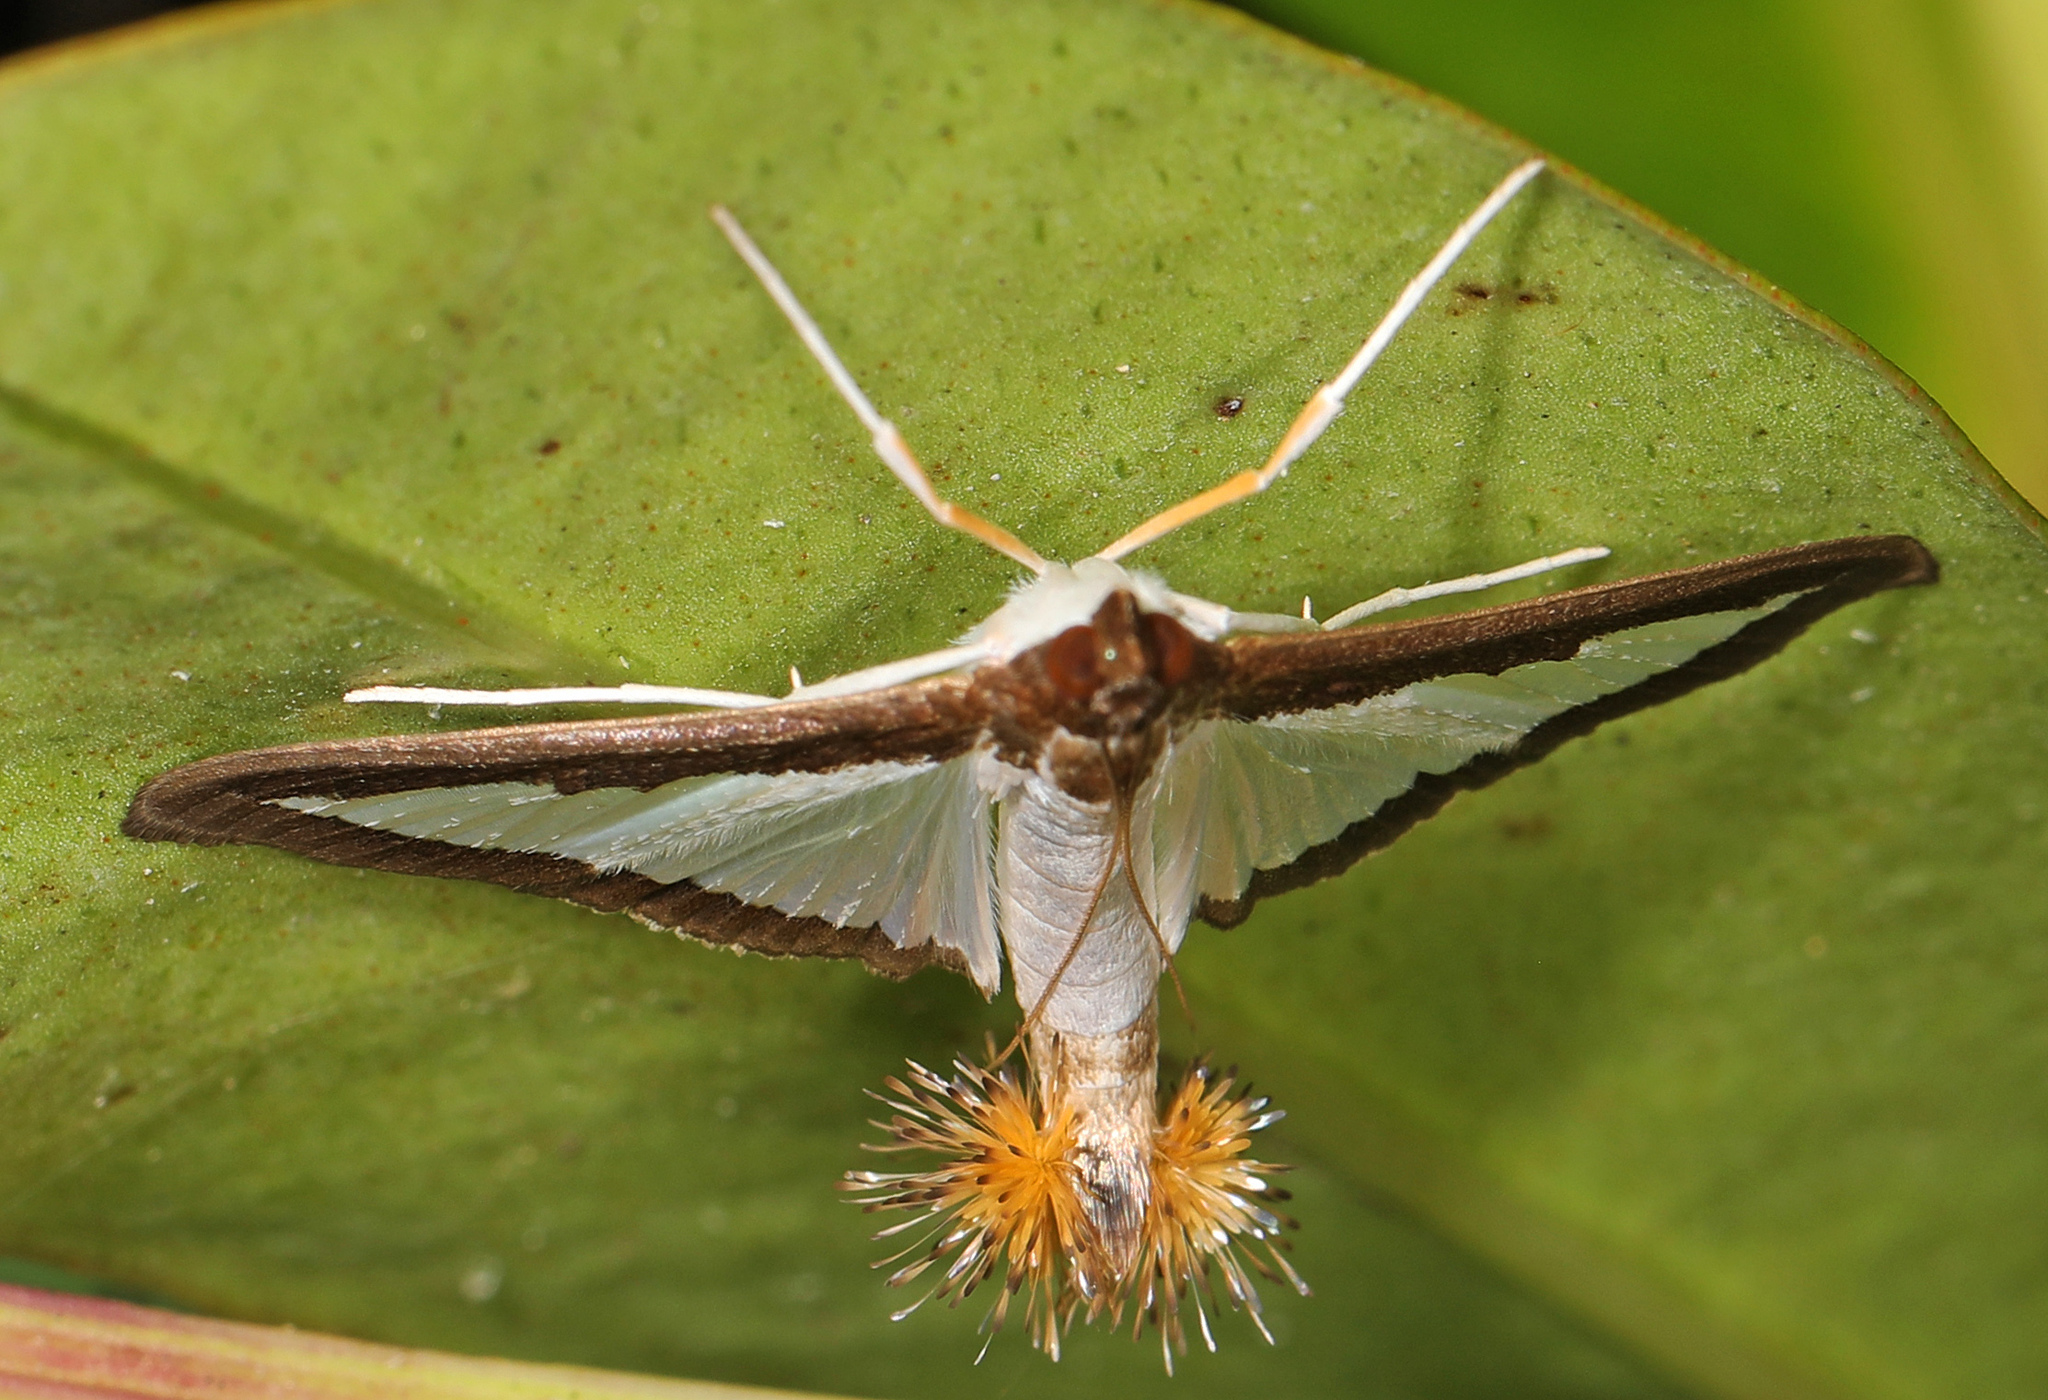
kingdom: Animalia
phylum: Arthropoda
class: Insecta
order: Lepidoptera
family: Crambidae
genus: Diaphania
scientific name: Diaphania hyalinata
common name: Melonworm
